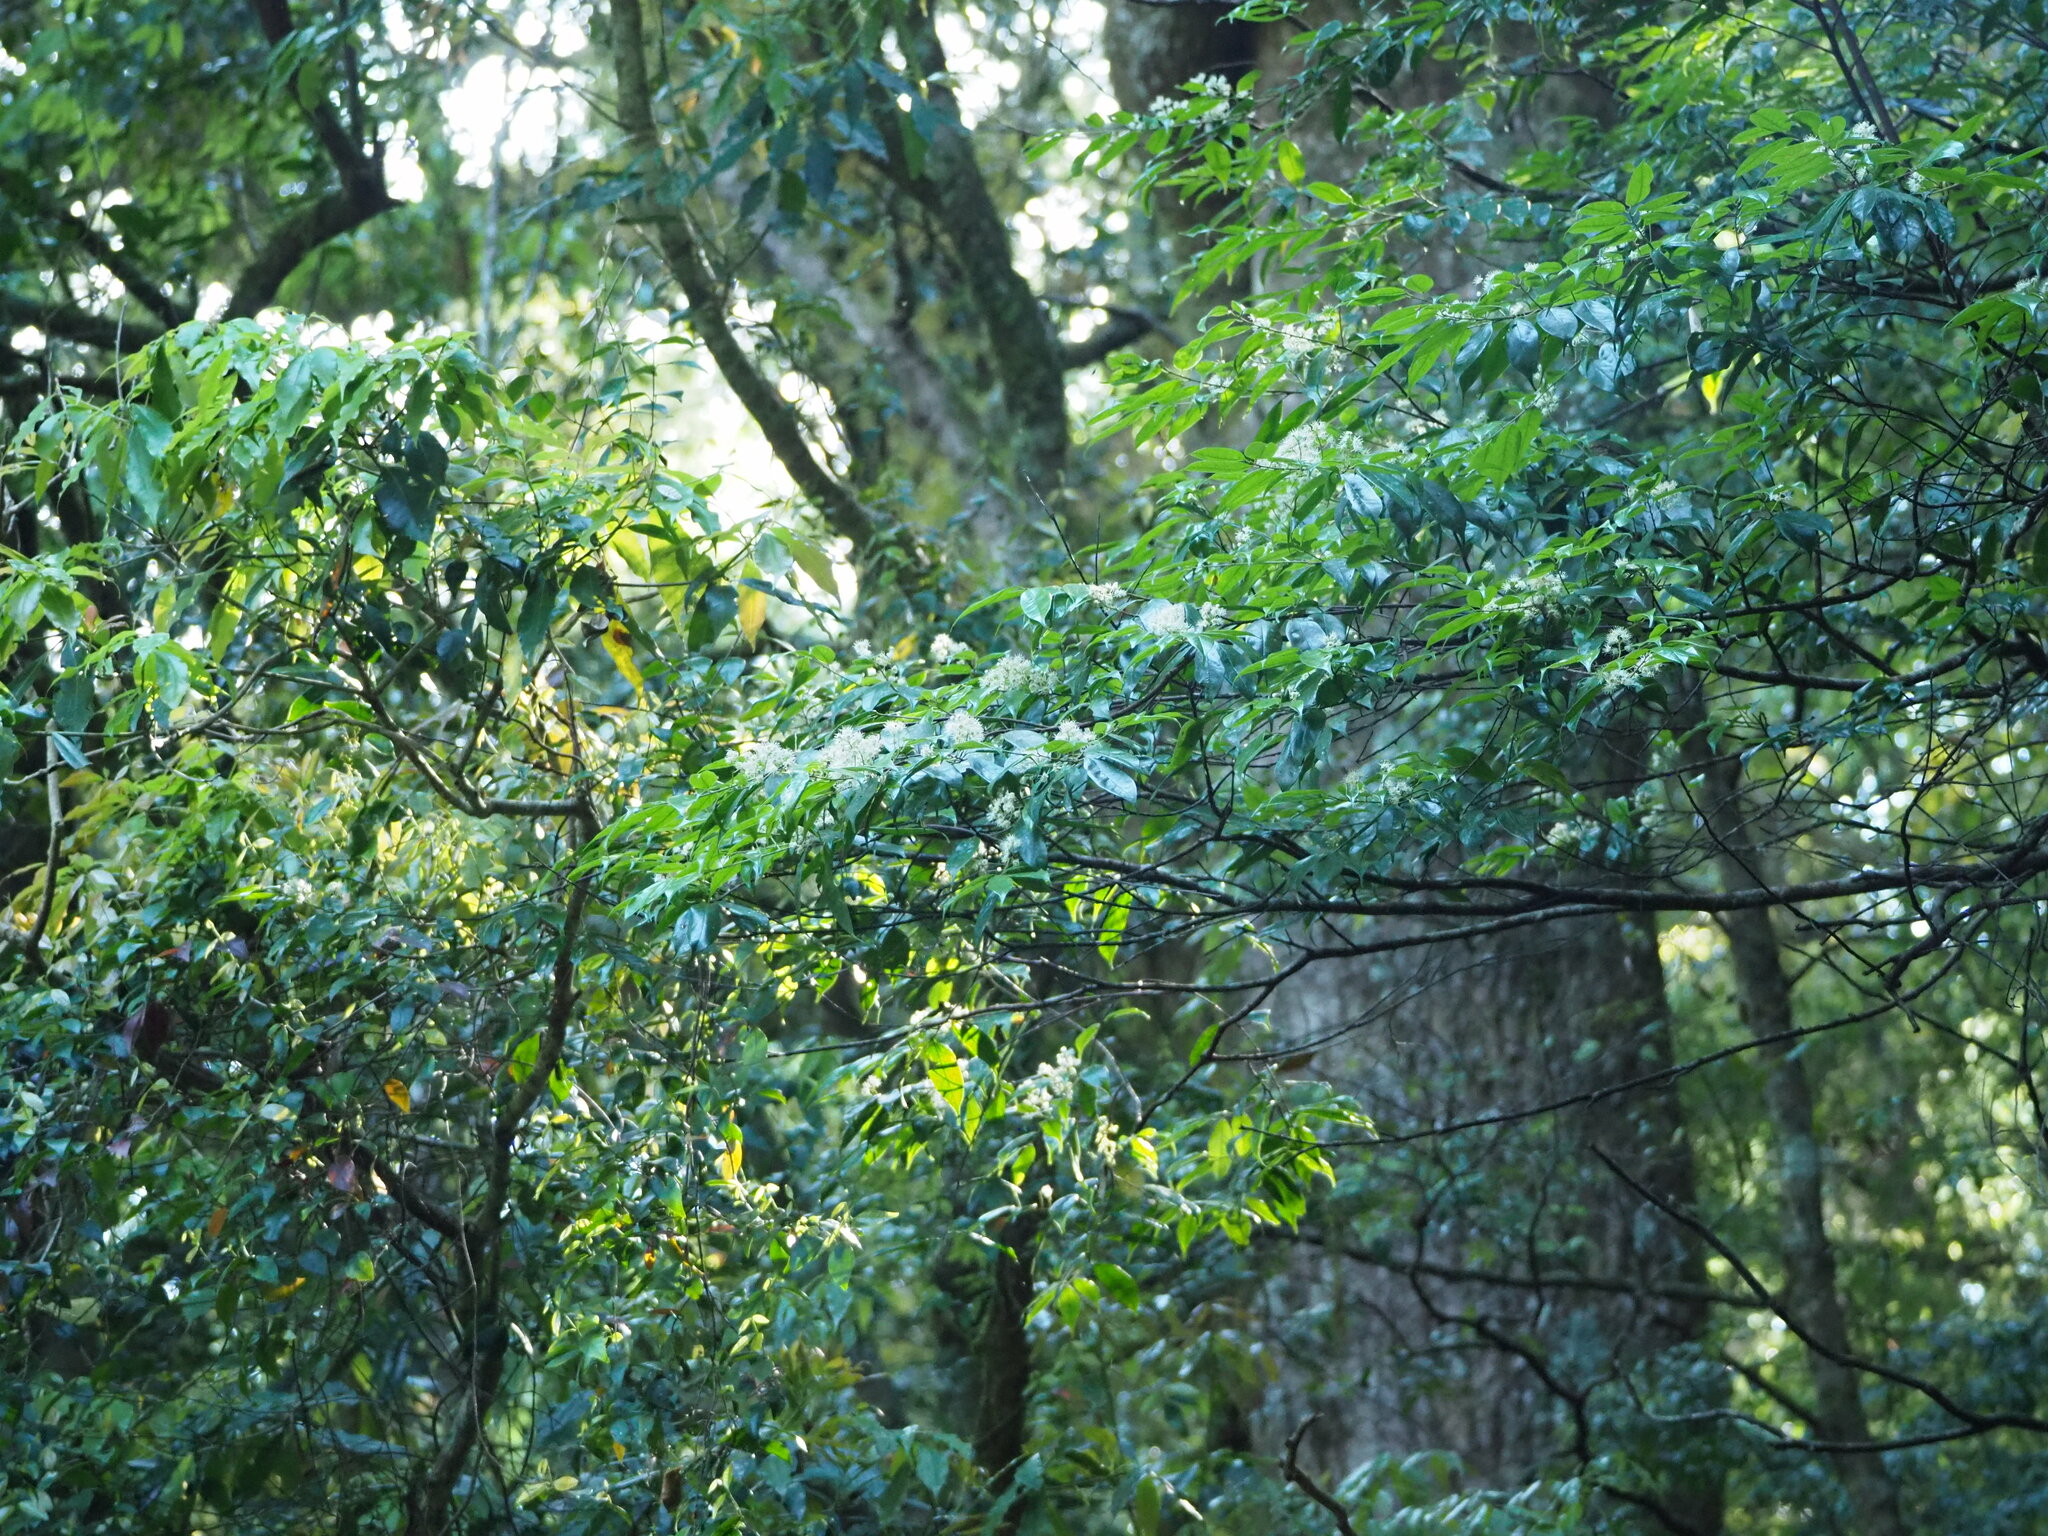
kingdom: Plantae
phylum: Tracheophyta
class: Magnoliopsida
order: Rosales
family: Rosaceae
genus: Prunus
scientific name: Prunus phaeosticta
